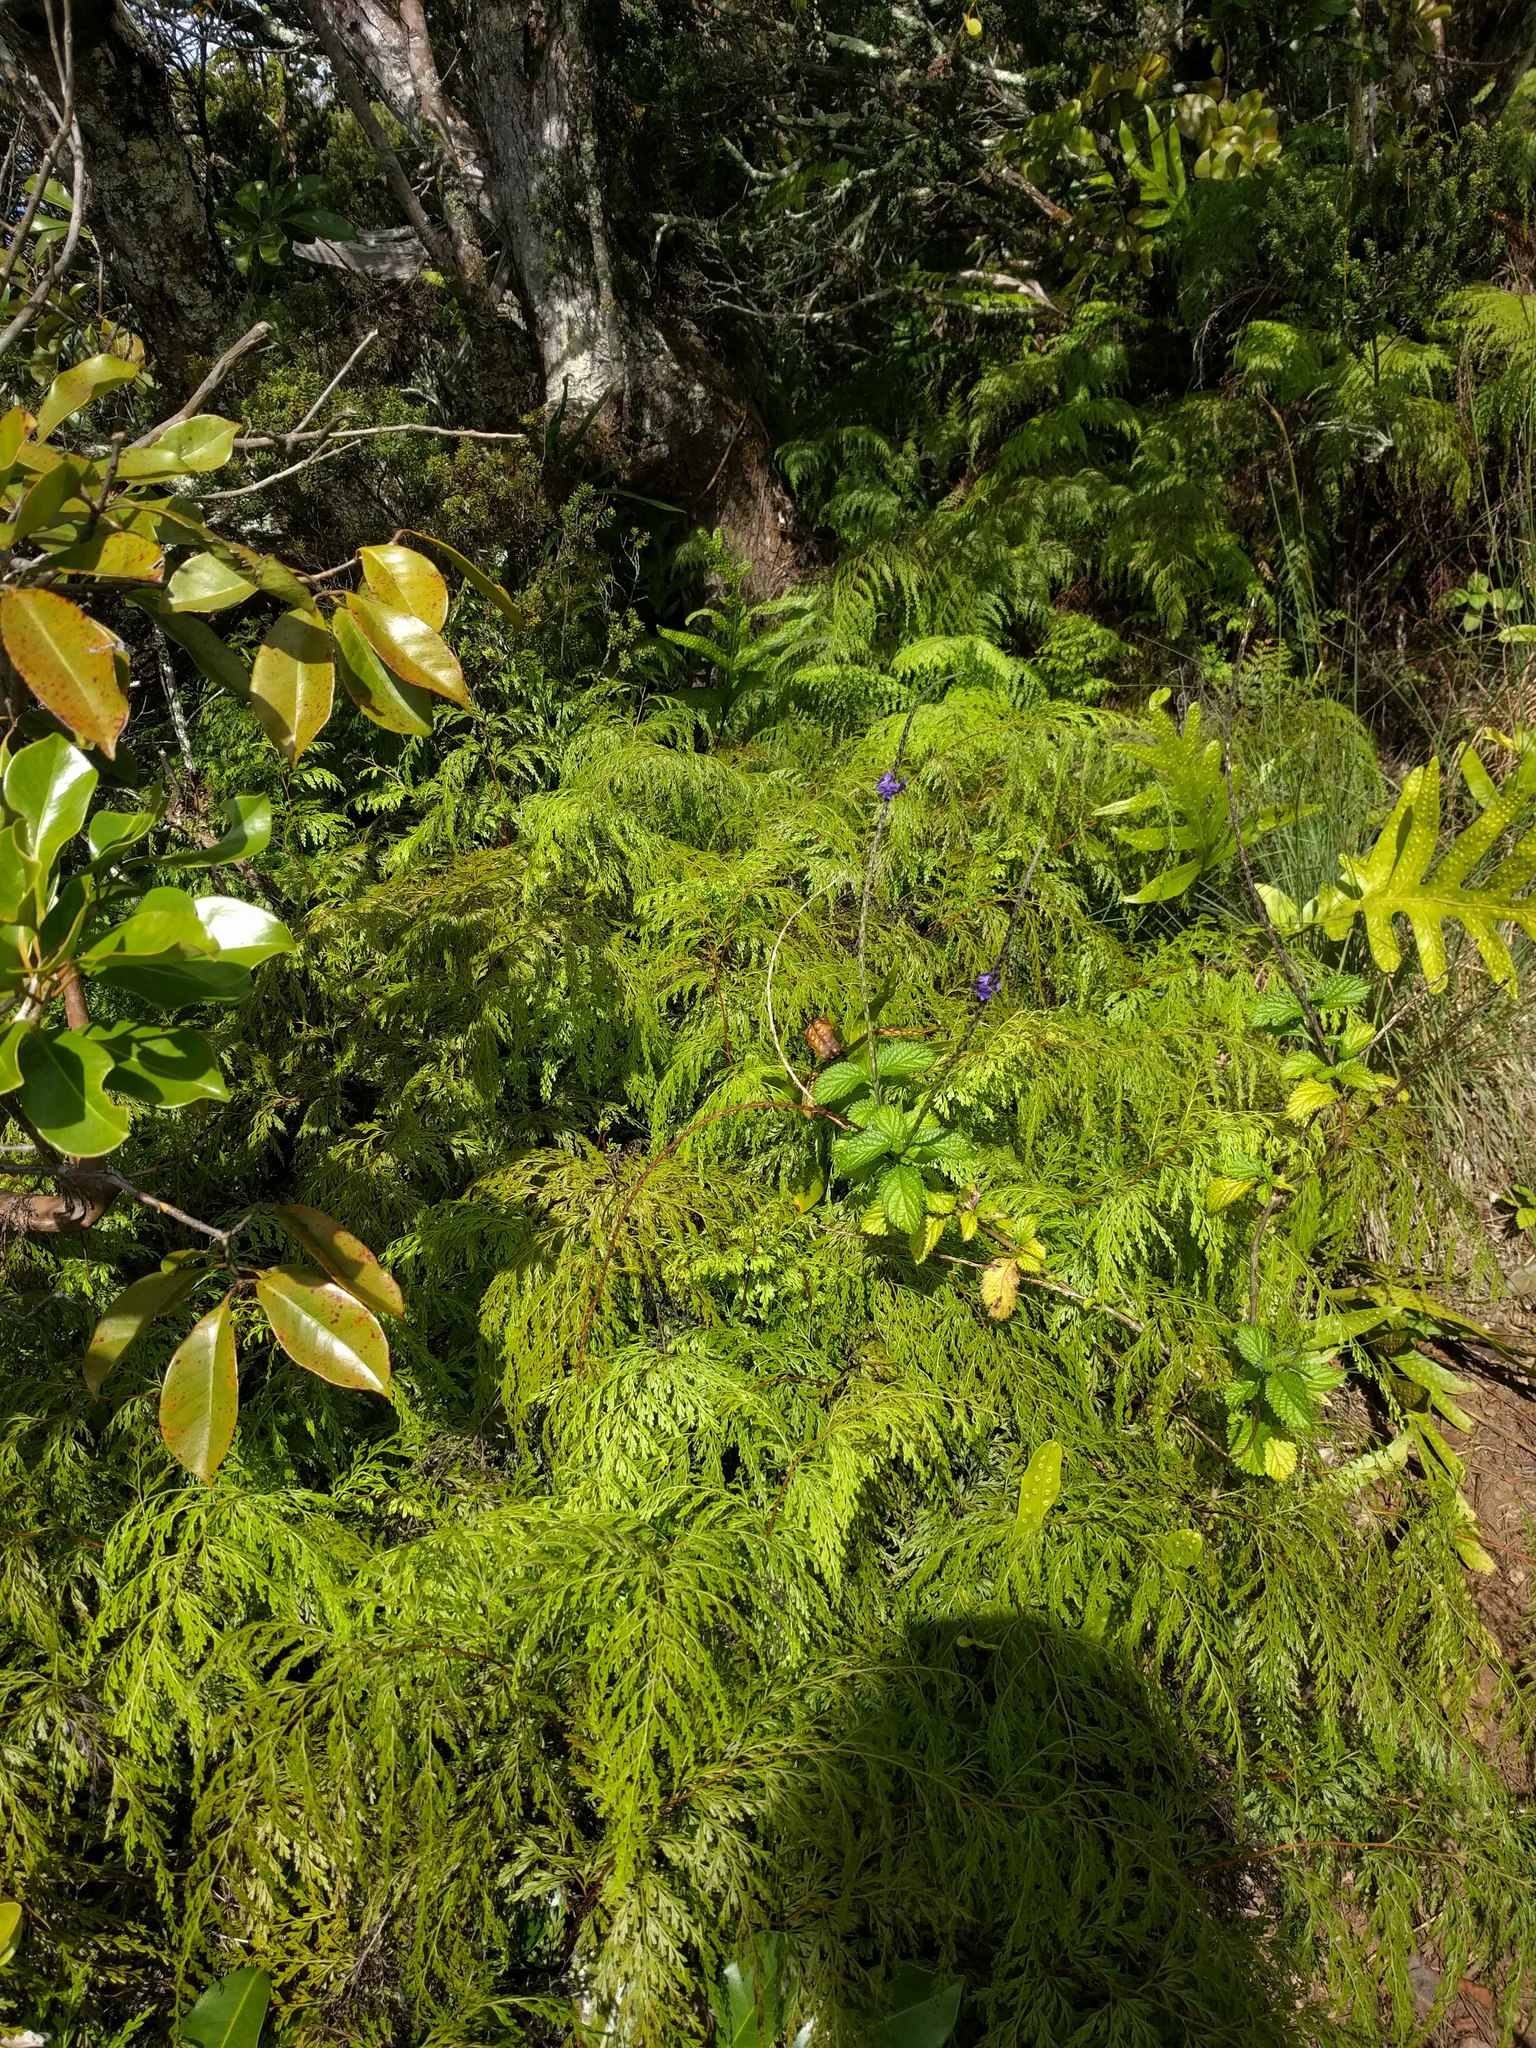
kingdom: Plantae
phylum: Tracheophyta
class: Polypodiopsida
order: Polypodiales
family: Lindsaeaceae
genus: Odontosoria
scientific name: Odontosoria chinensis
